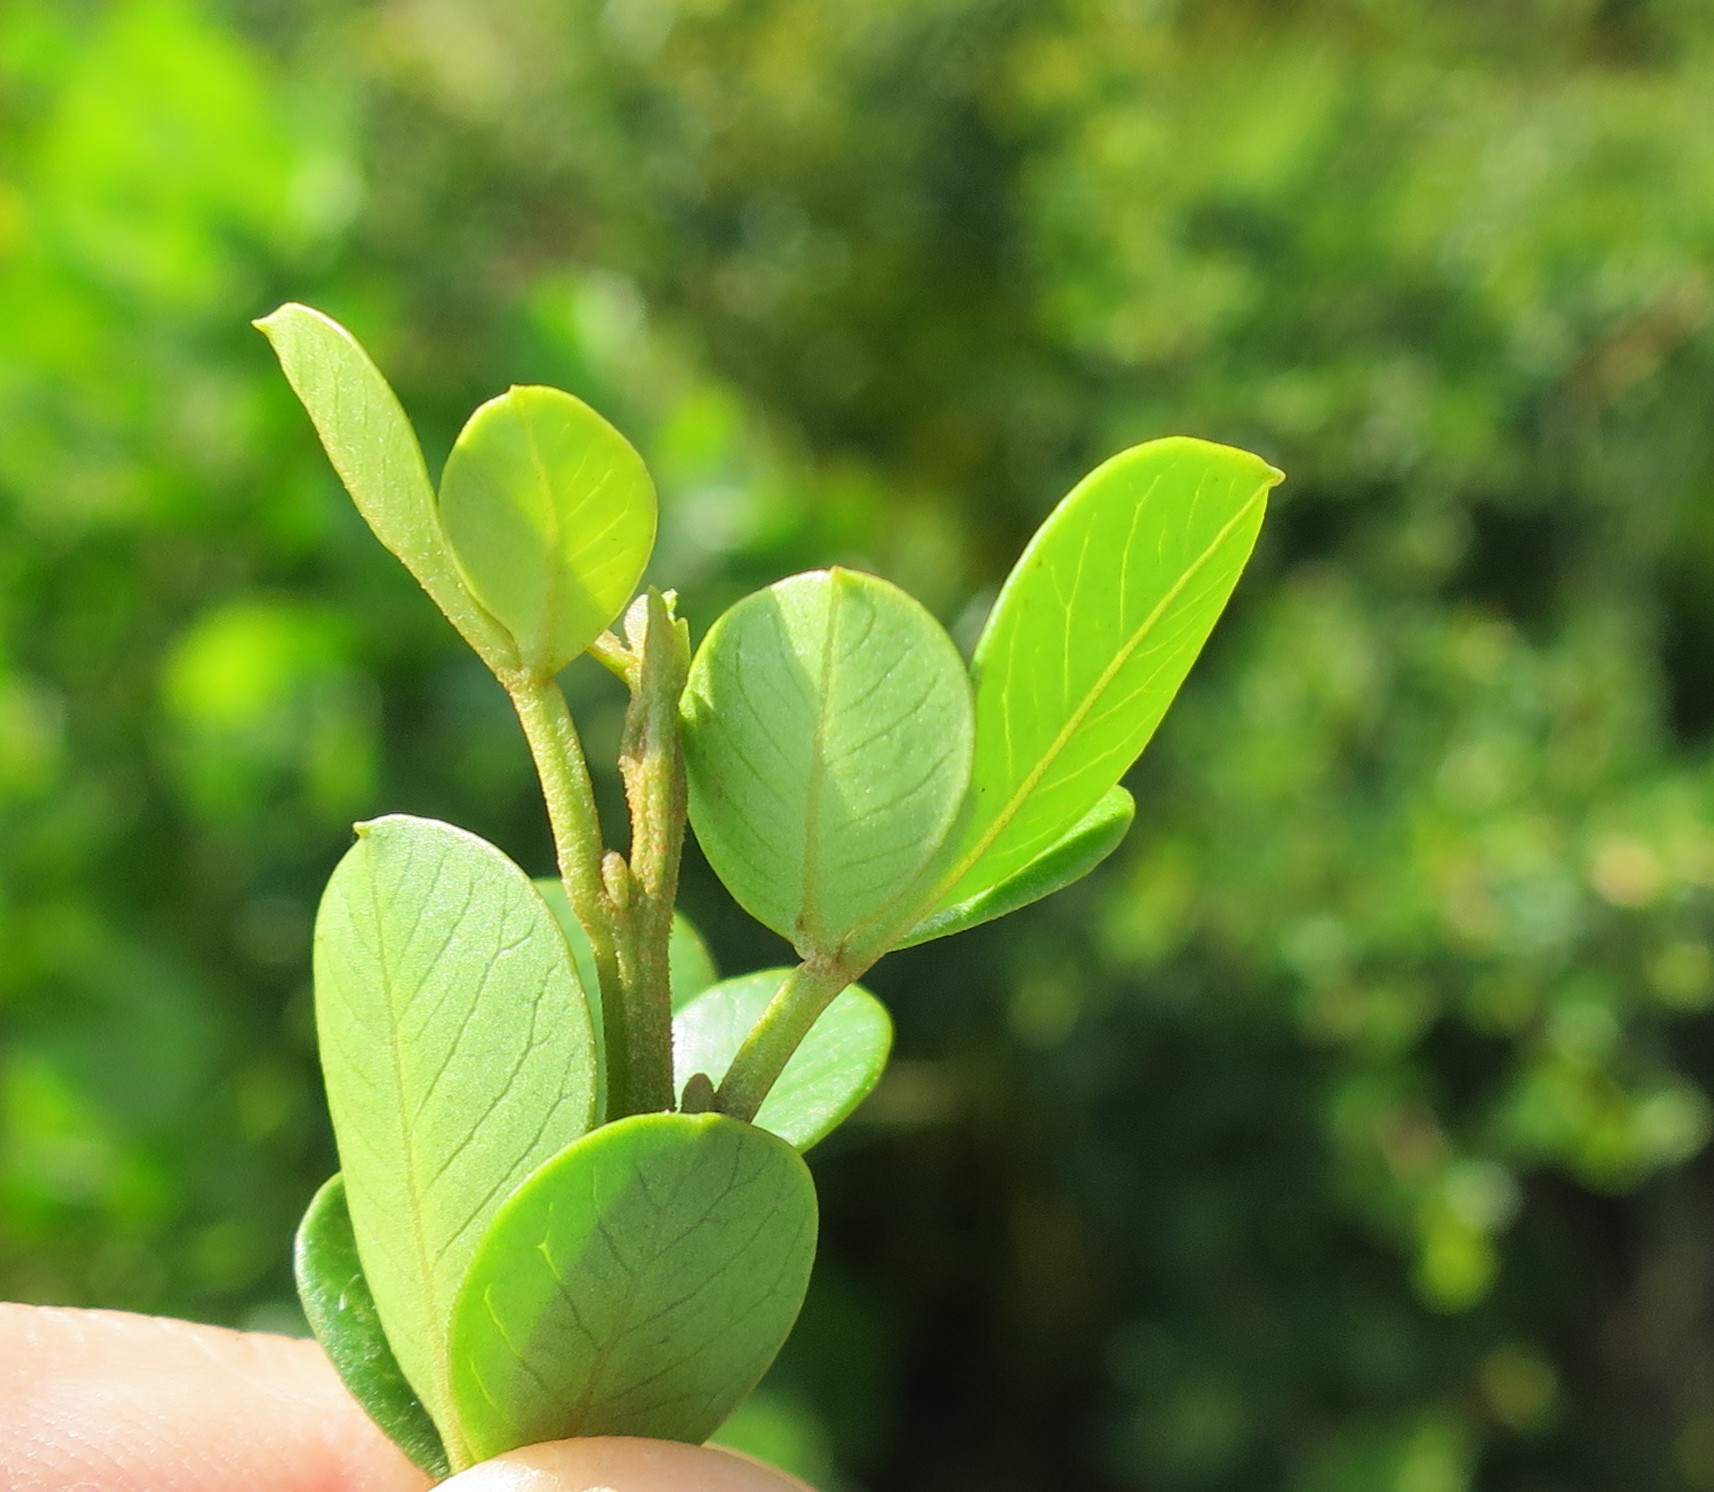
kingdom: Plantae
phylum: Tracheophyta
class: Magnoliopsida
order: Sapindales
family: Anacardiaceae
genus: Searsia
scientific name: Searsia glauca
